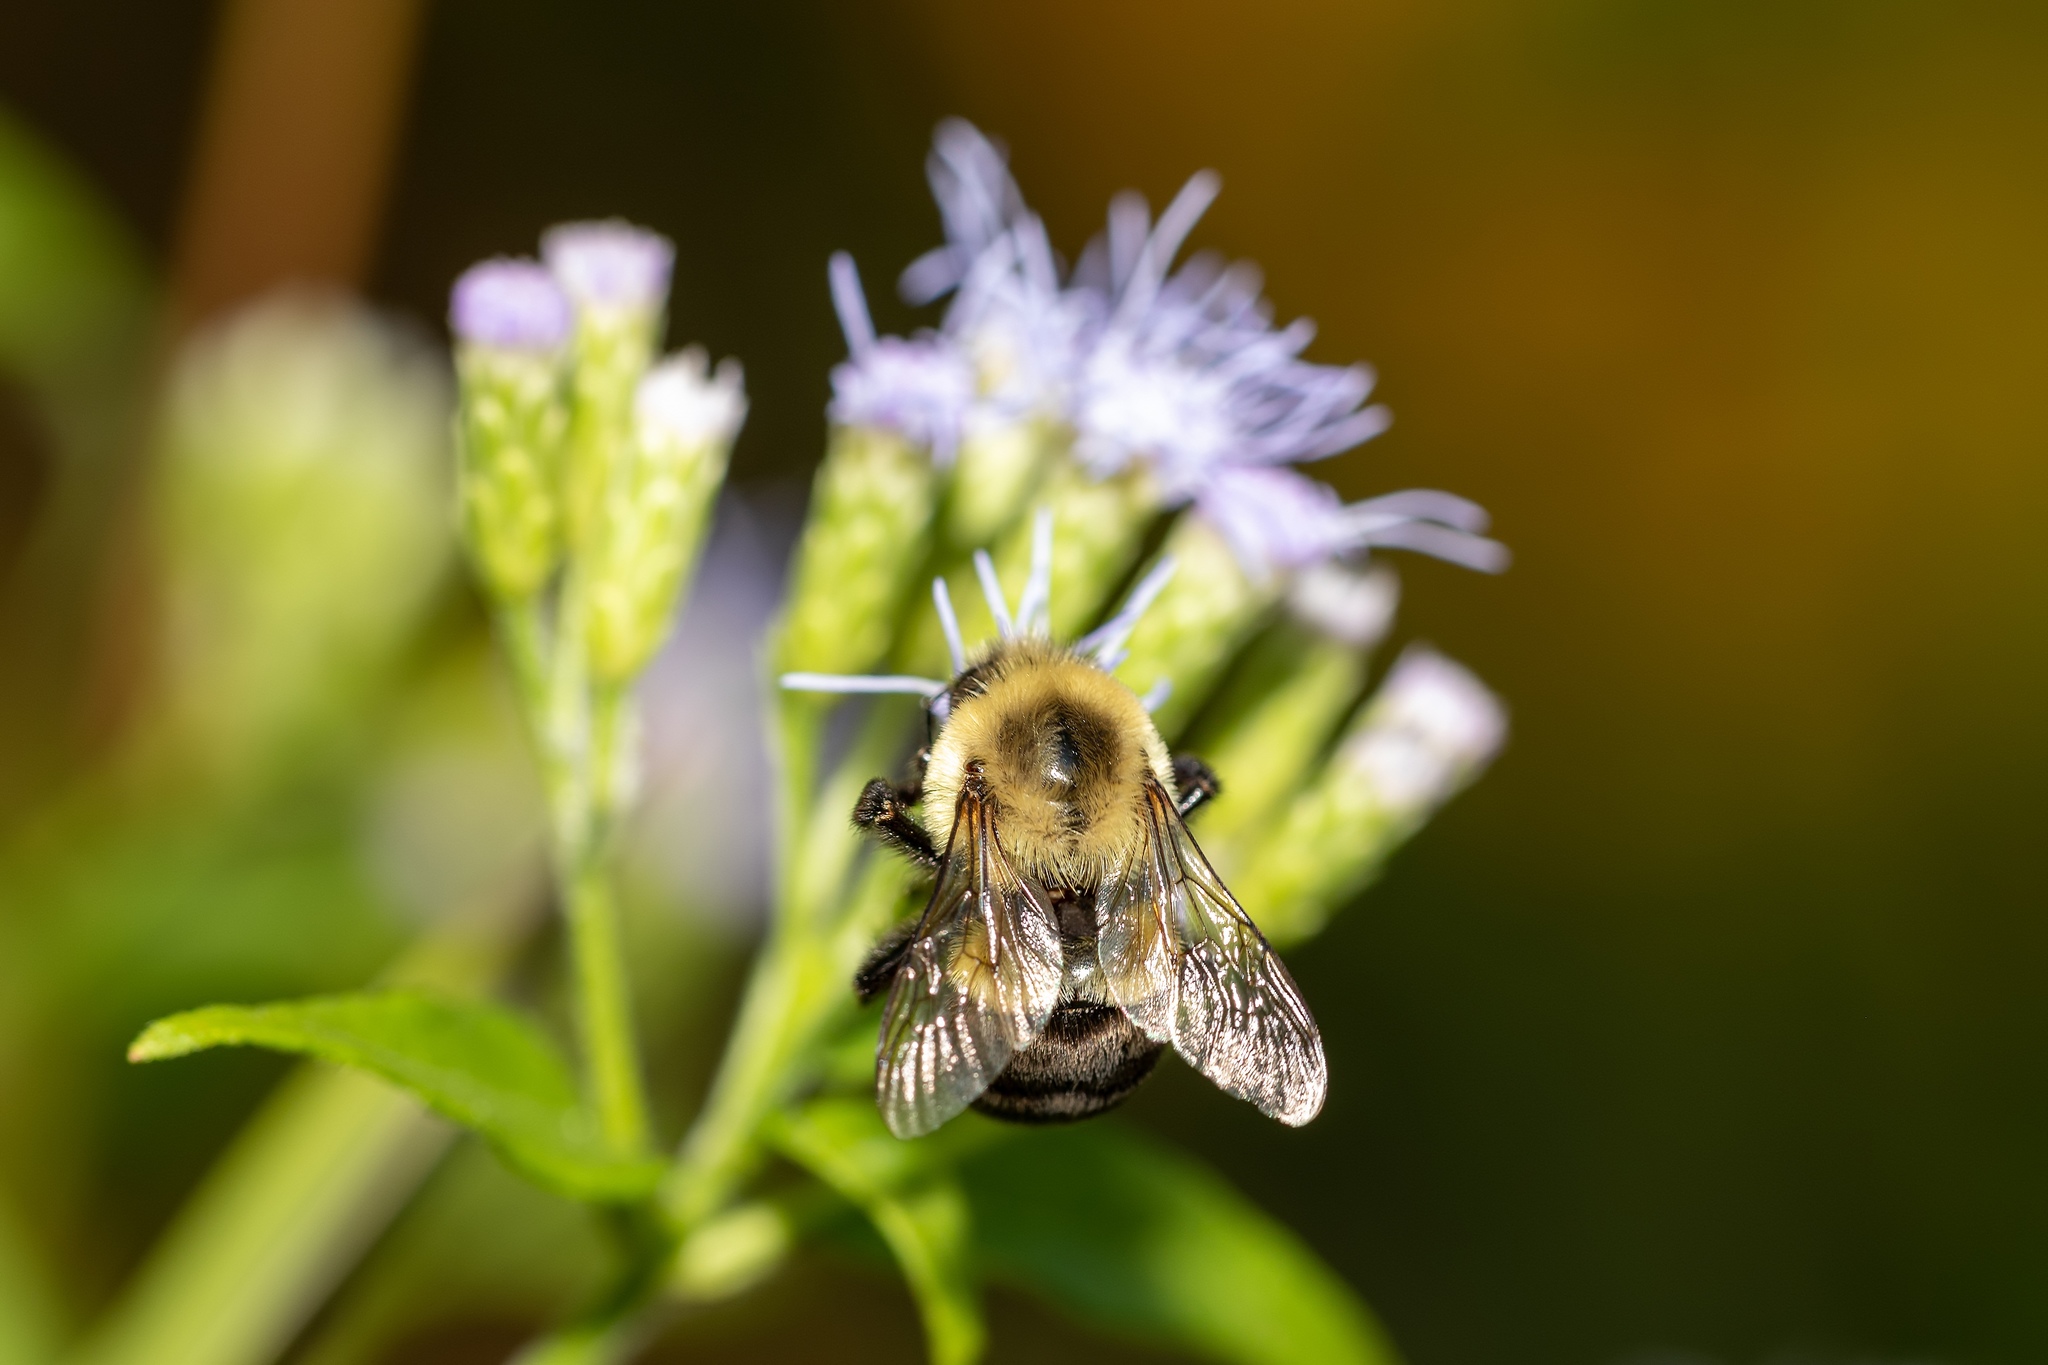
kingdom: Animalia
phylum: Arthropoda
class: Insecta
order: Hymenoptera
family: Apidae
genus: Bombus
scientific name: Bombus impatiens
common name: Common eastern bumble bee
